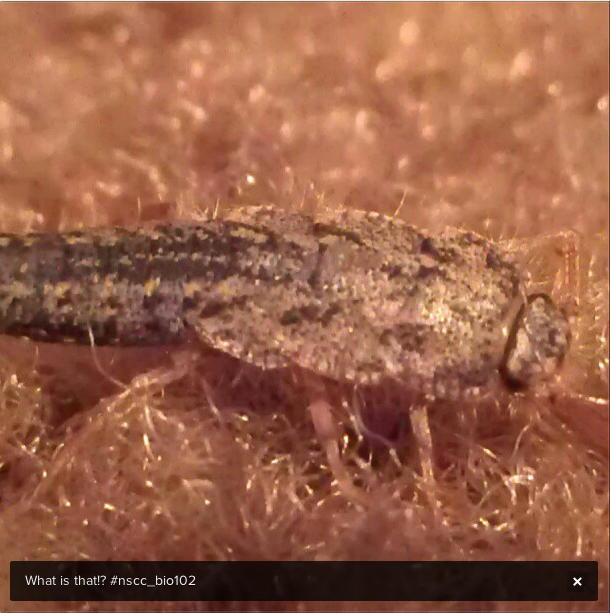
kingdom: Animalia
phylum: Arthropoda
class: Insecta
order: Zygentoma
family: Lepismatidae
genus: Ctenolepisma
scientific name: Ctenolepisma lineata
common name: Four-lined silverfish
